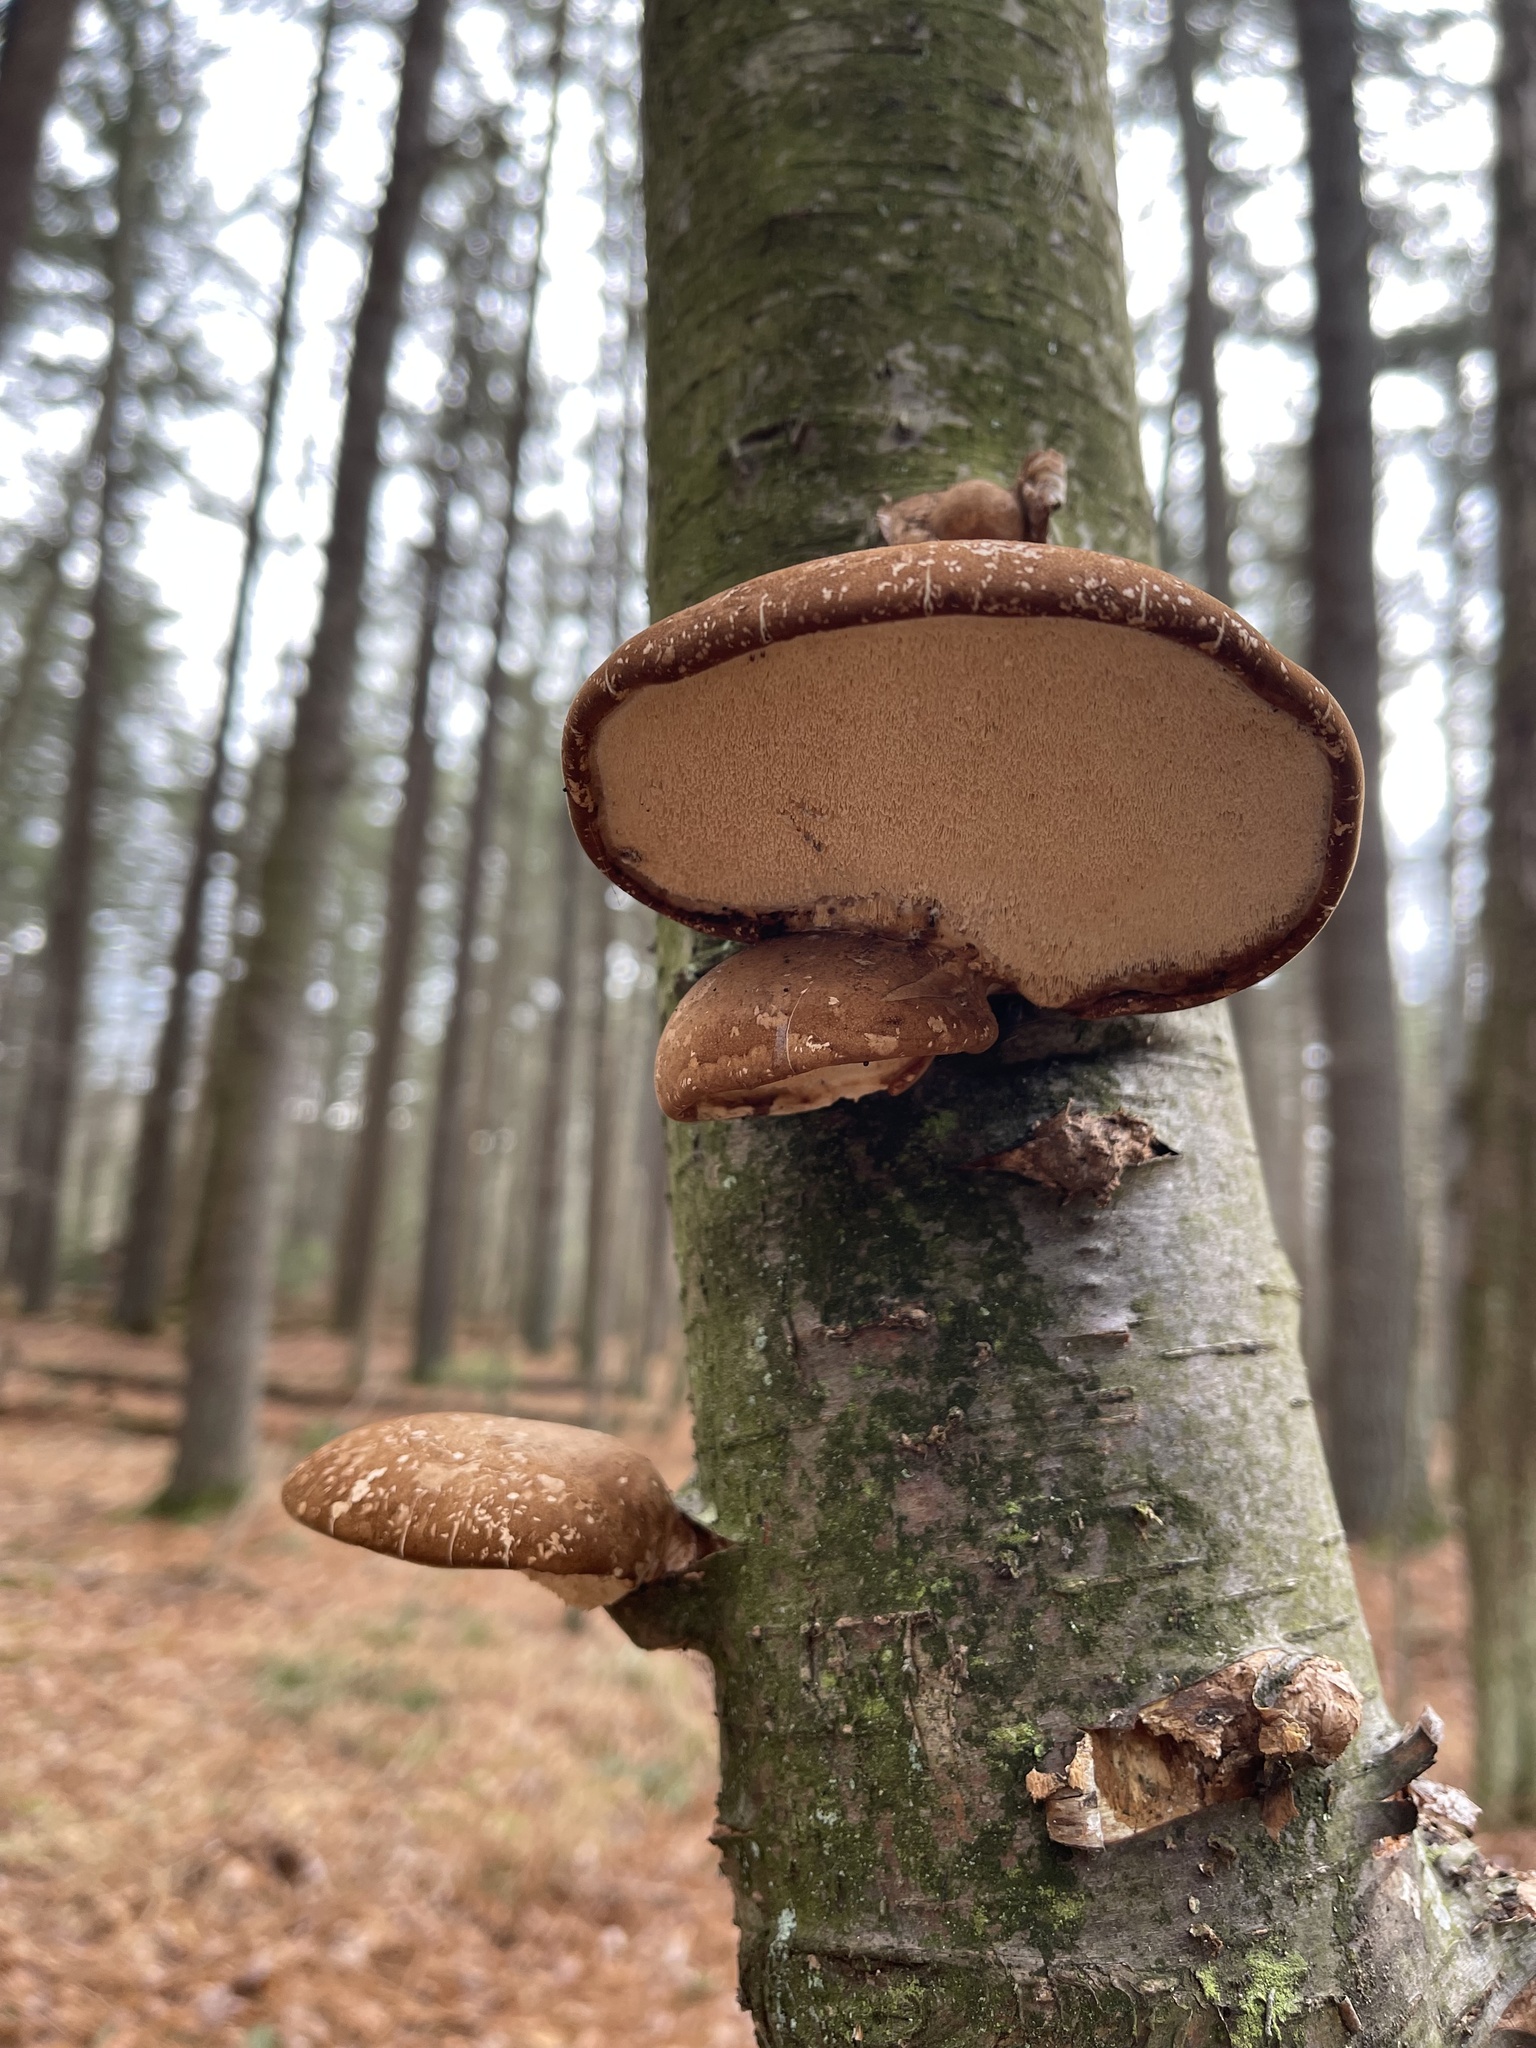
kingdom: Fungi
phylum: Basidiomycota
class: Agaricomycetes
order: Polyporales
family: Fomitopsidaceae
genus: Fomitopsis
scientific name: Fomitopsis betulina
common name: Birch polypore
